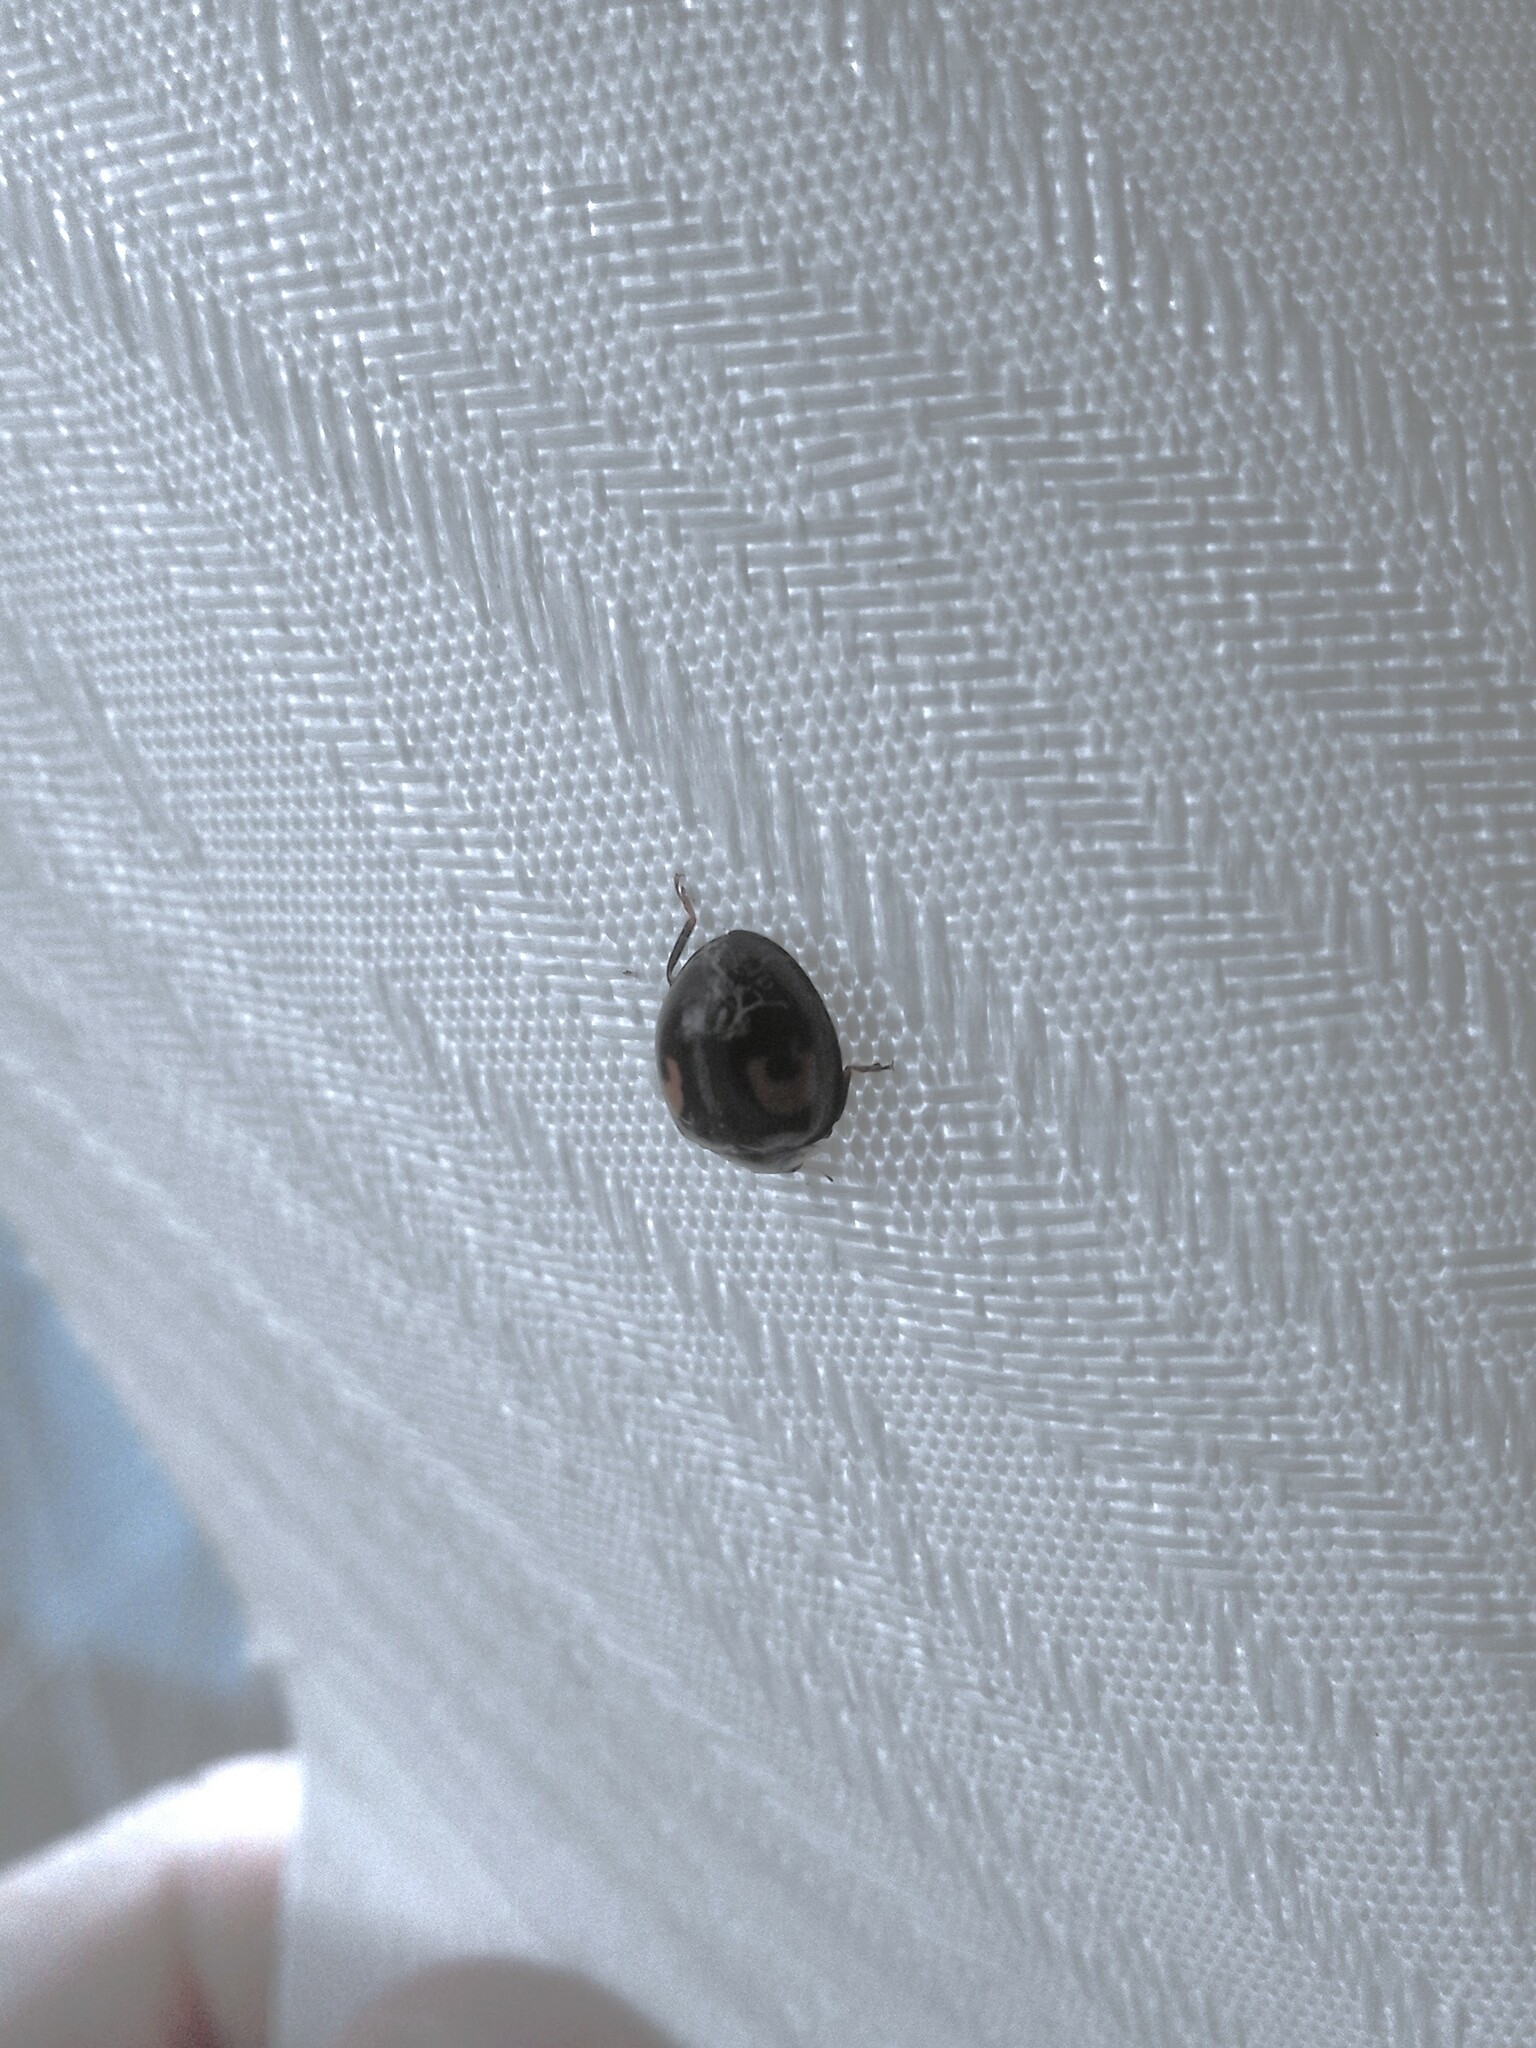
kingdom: Animalia
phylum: Arthropoda
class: Insecta
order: Coleoptera
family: Coccinellidae
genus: Harmonia
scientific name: Harmonia axyridis
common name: Harlequin ladybird
